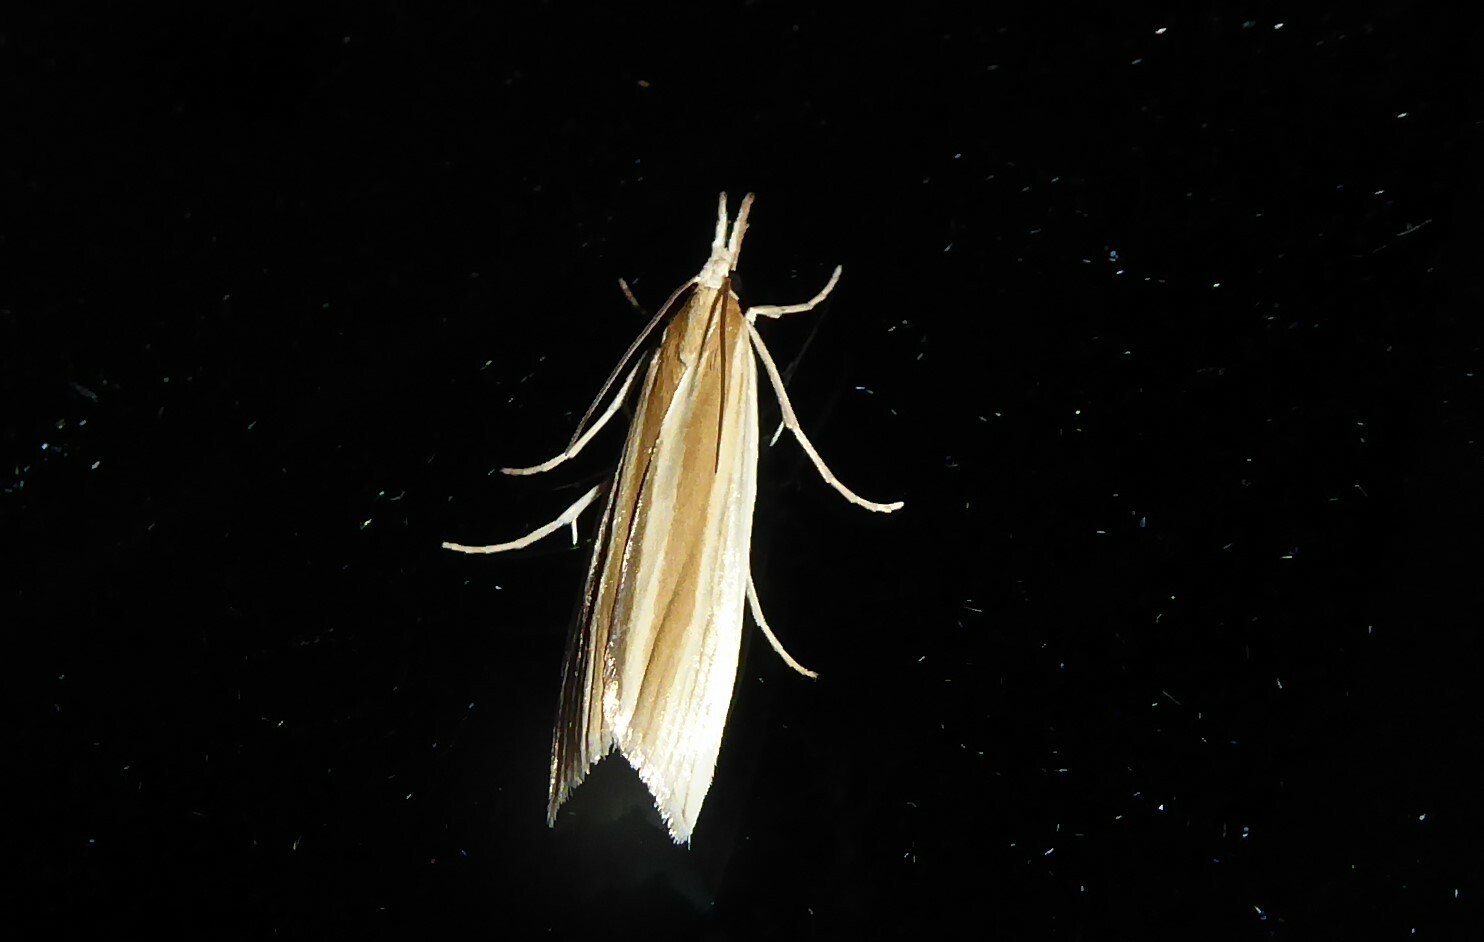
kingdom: Animalia
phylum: Arthropoda
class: Insecta
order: Lepidoptera
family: Crambidae
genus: Orocrambus
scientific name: Orocrambus angustipennis
